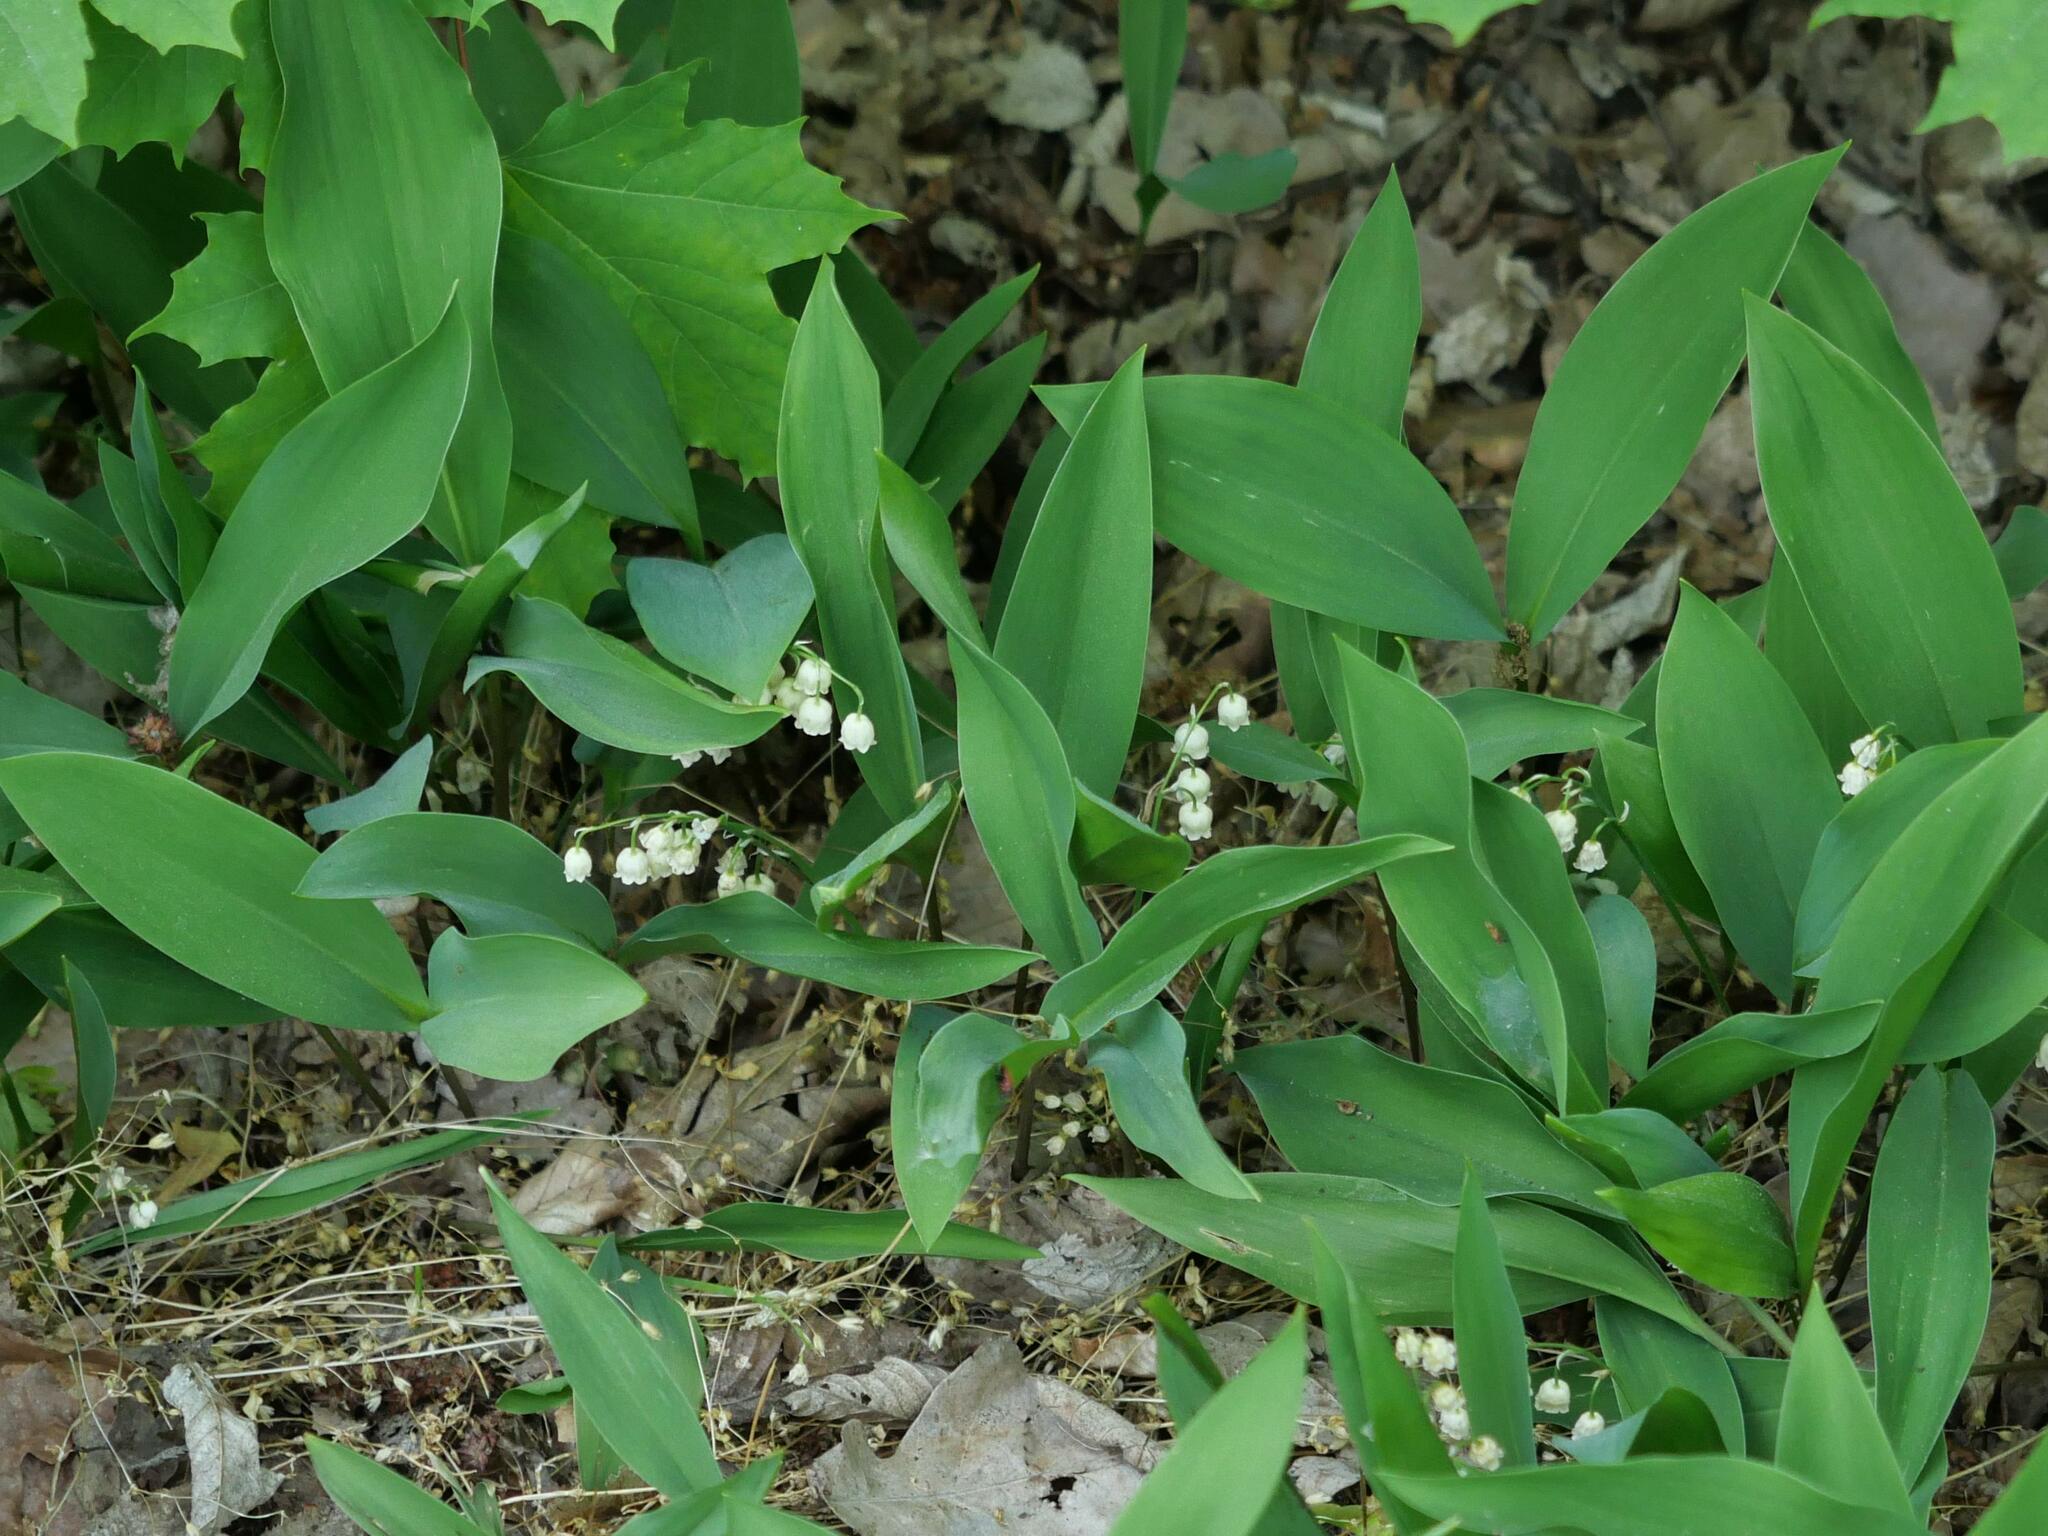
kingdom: Plantae
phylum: Tracheophyta
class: Liliopsida
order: Asparagales
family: Asparagaceae
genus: Convallaria
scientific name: Convallaria majalis
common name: Lily-of-the-valley
